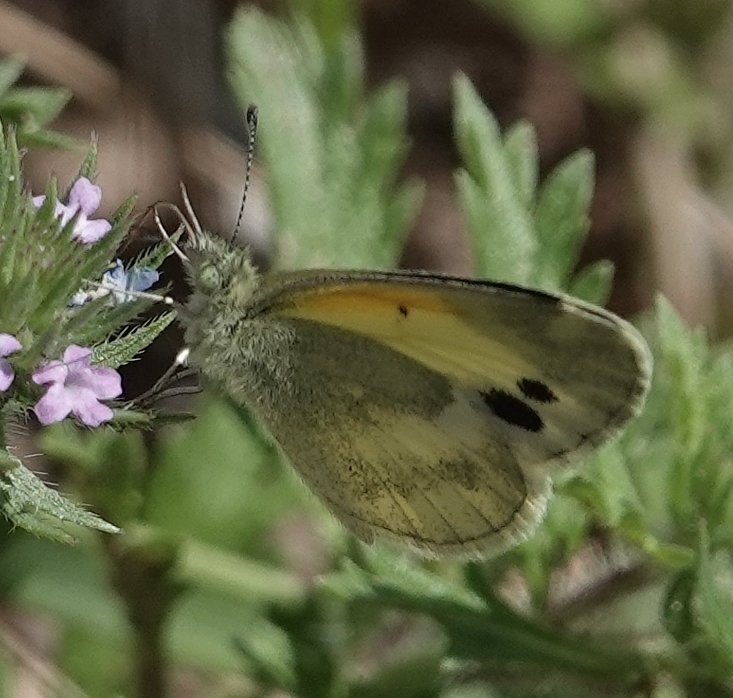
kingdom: Animalia
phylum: Arthropoda
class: Insecta
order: Lepidoptera
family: Pieridae
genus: Nathalis
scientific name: Nathalis iole
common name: Dainty sulphur
